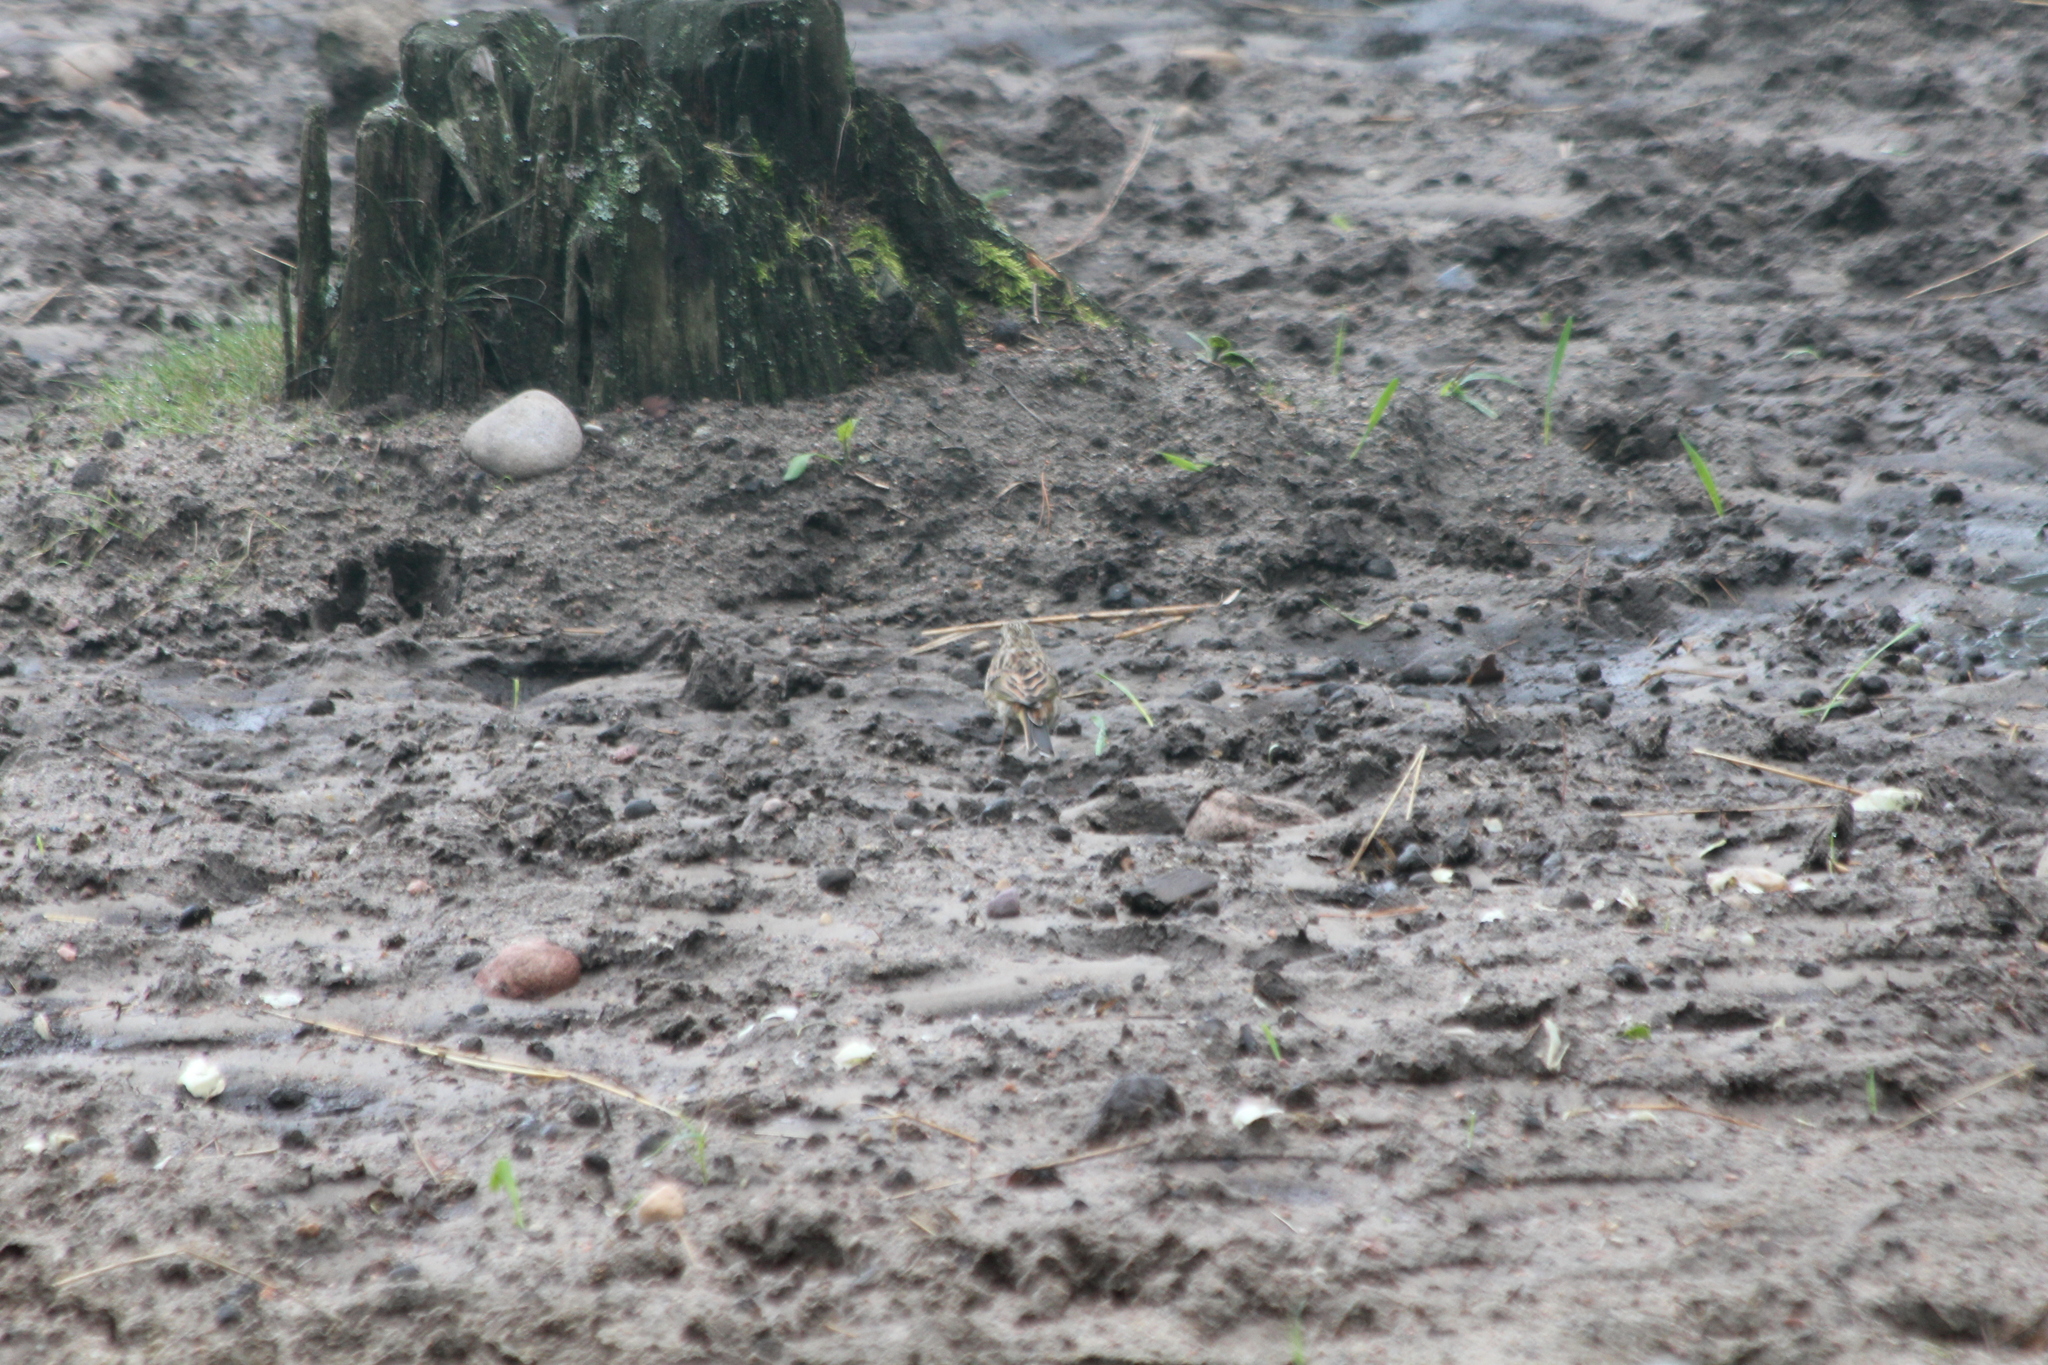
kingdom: Animalia
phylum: Chordata
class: Aves
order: Passeriformes
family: Emberizidae
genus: Emberiza
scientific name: Emberiza citrinella
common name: Yellowhammer
